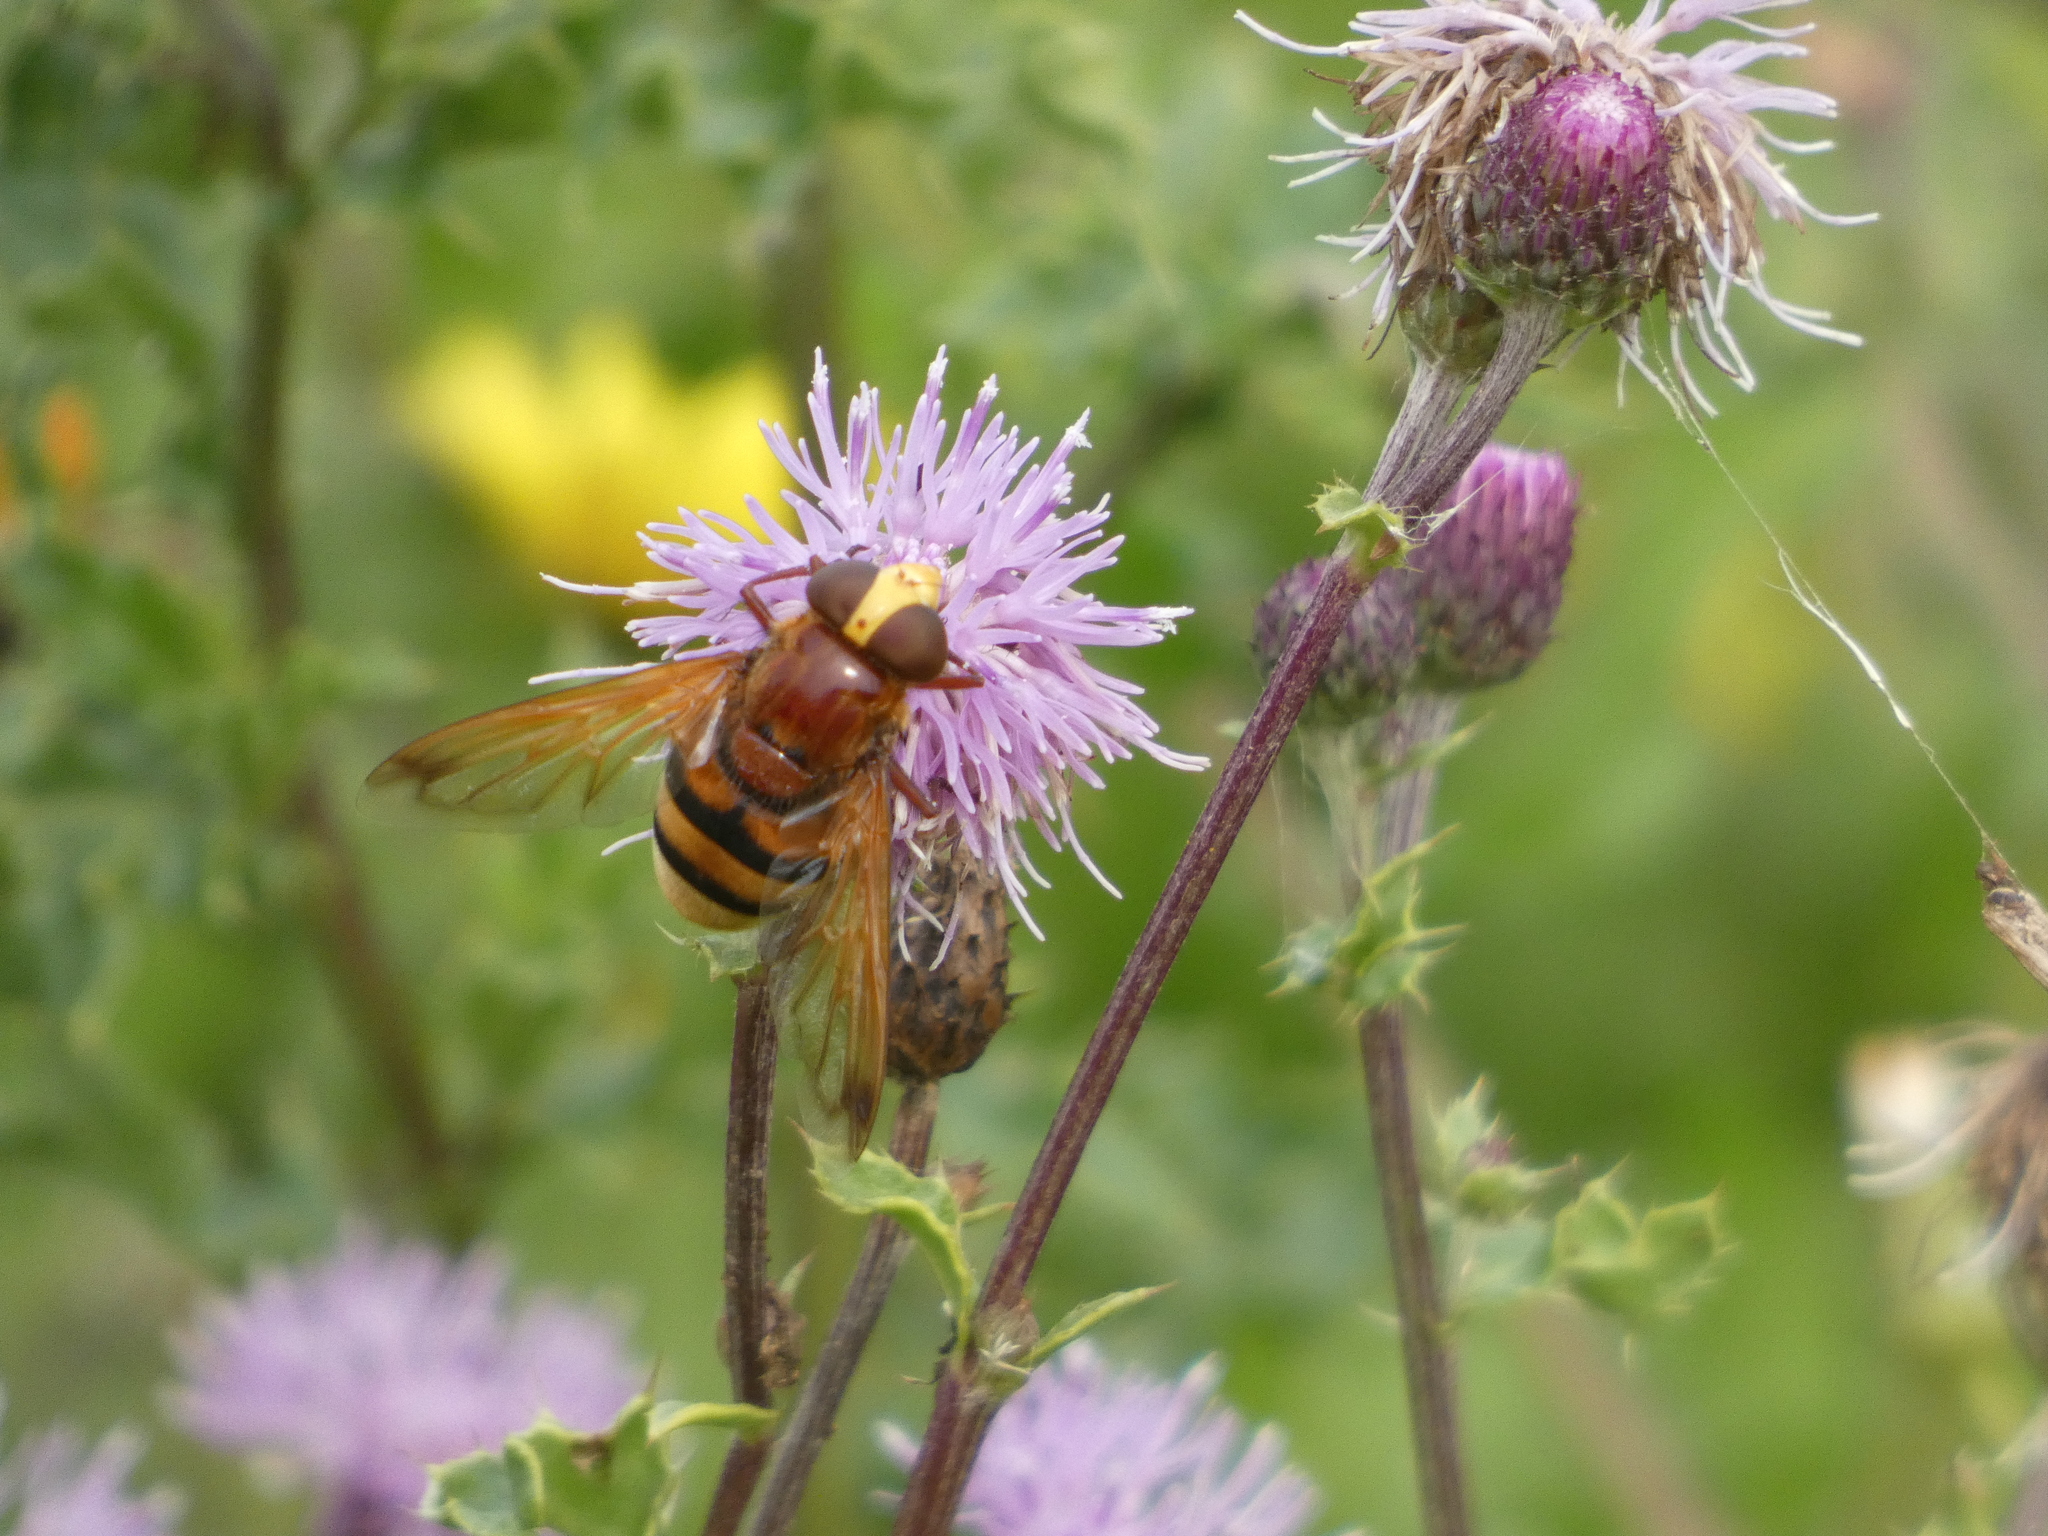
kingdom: Animalia
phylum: Arthropoda
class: Insecta
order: Diptera
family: Syrphidae
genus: Volucella
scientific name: Volucella zonaria
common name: Hornet hoverfly
